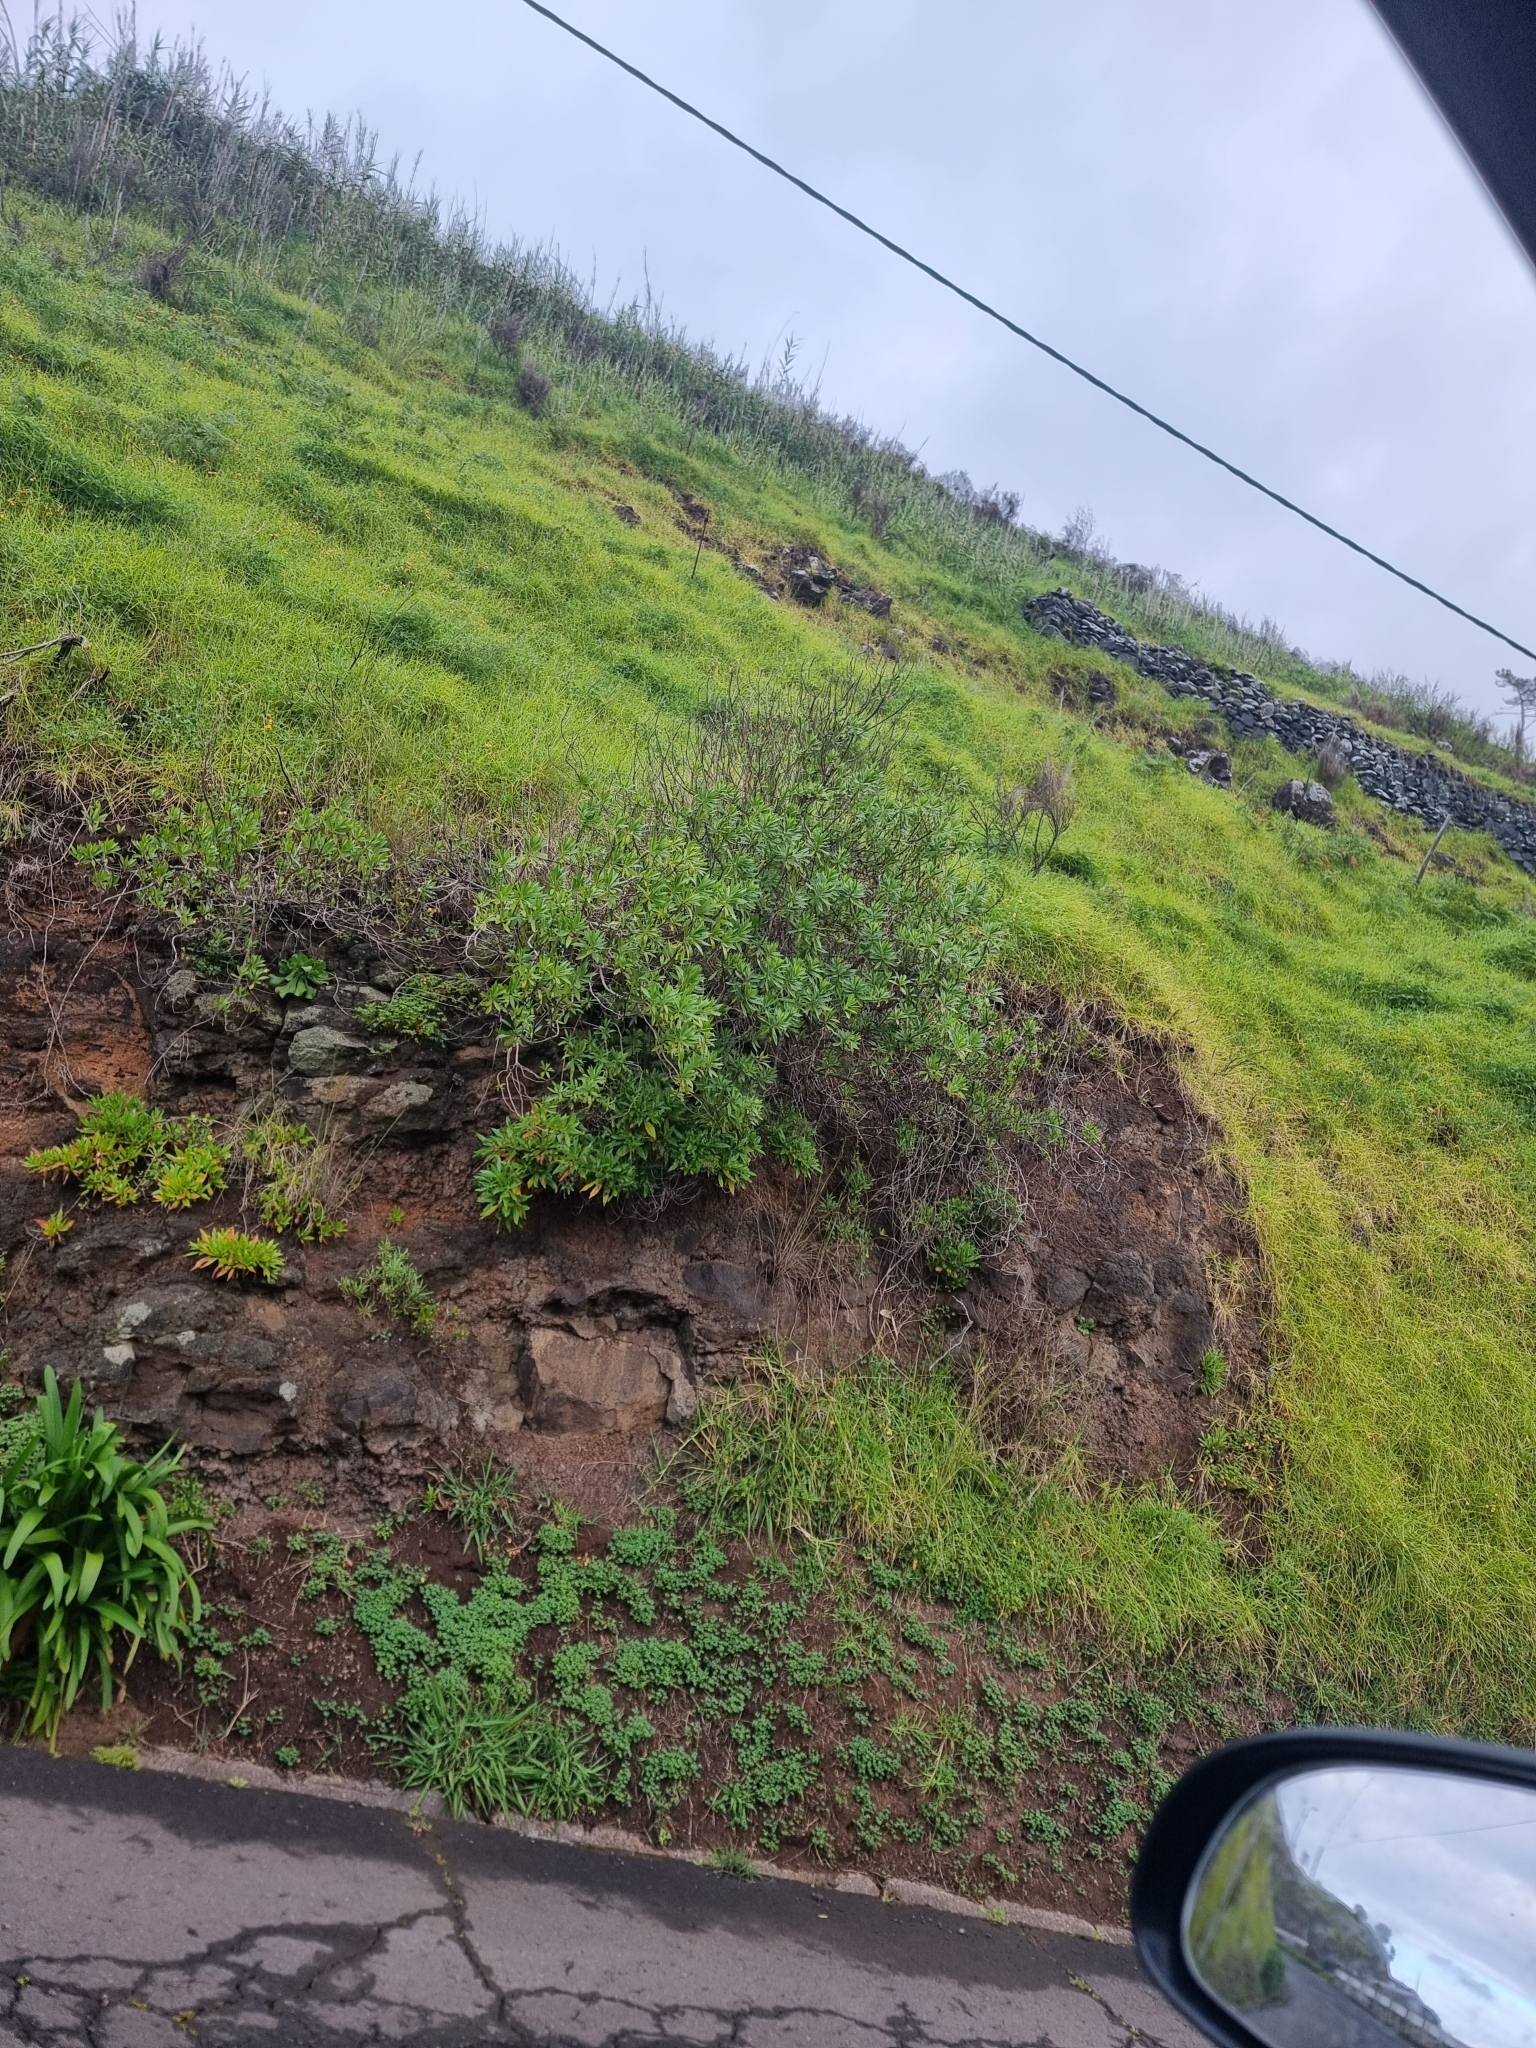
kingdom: Plantae
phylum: Tracheophyta
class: Magnoliopsida
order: Lamiales
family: Plantaginaceae
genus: Globularia
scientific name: Globularia salicina
